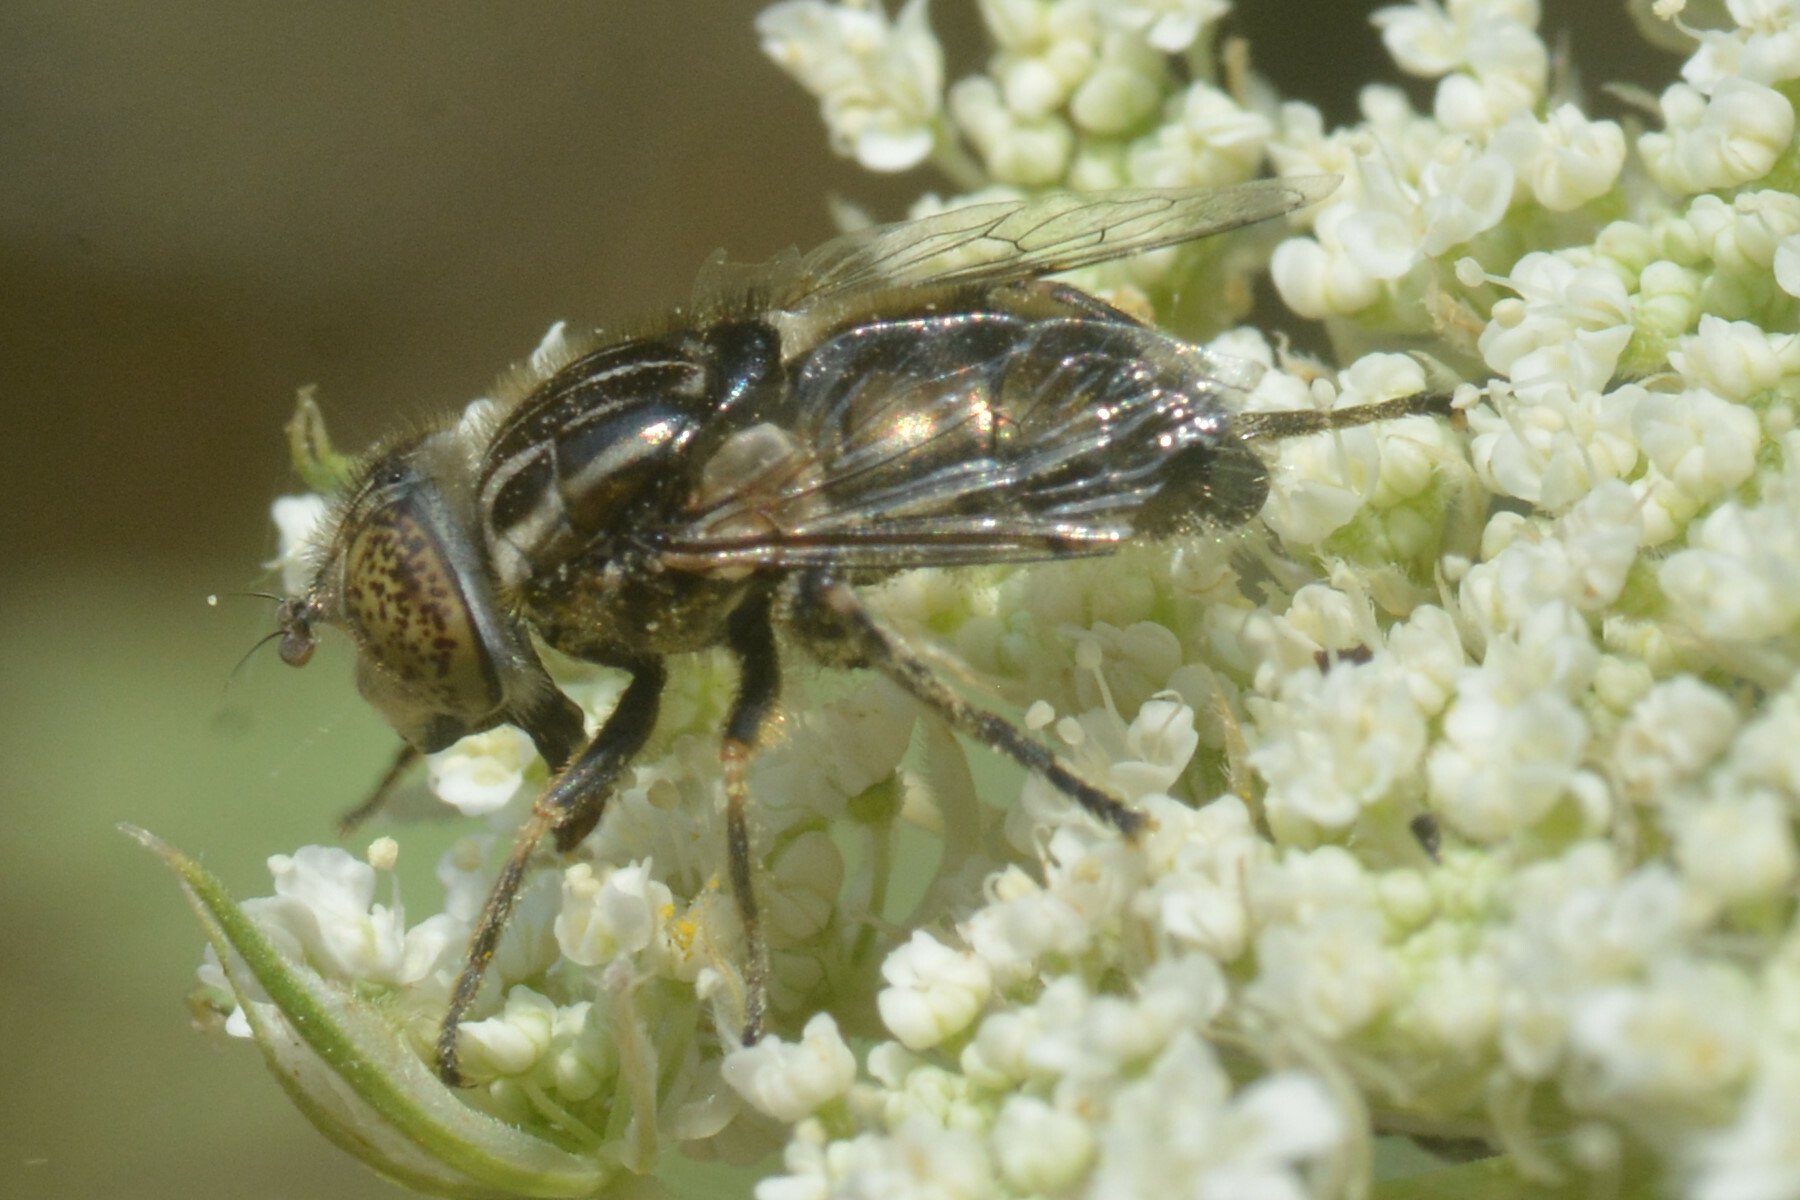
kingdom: Animalia
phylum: Arthropoda
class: Insecta
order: Diptera
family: Syrphidae
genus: Eristalinus
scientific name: Eristalinus sepulchralis
